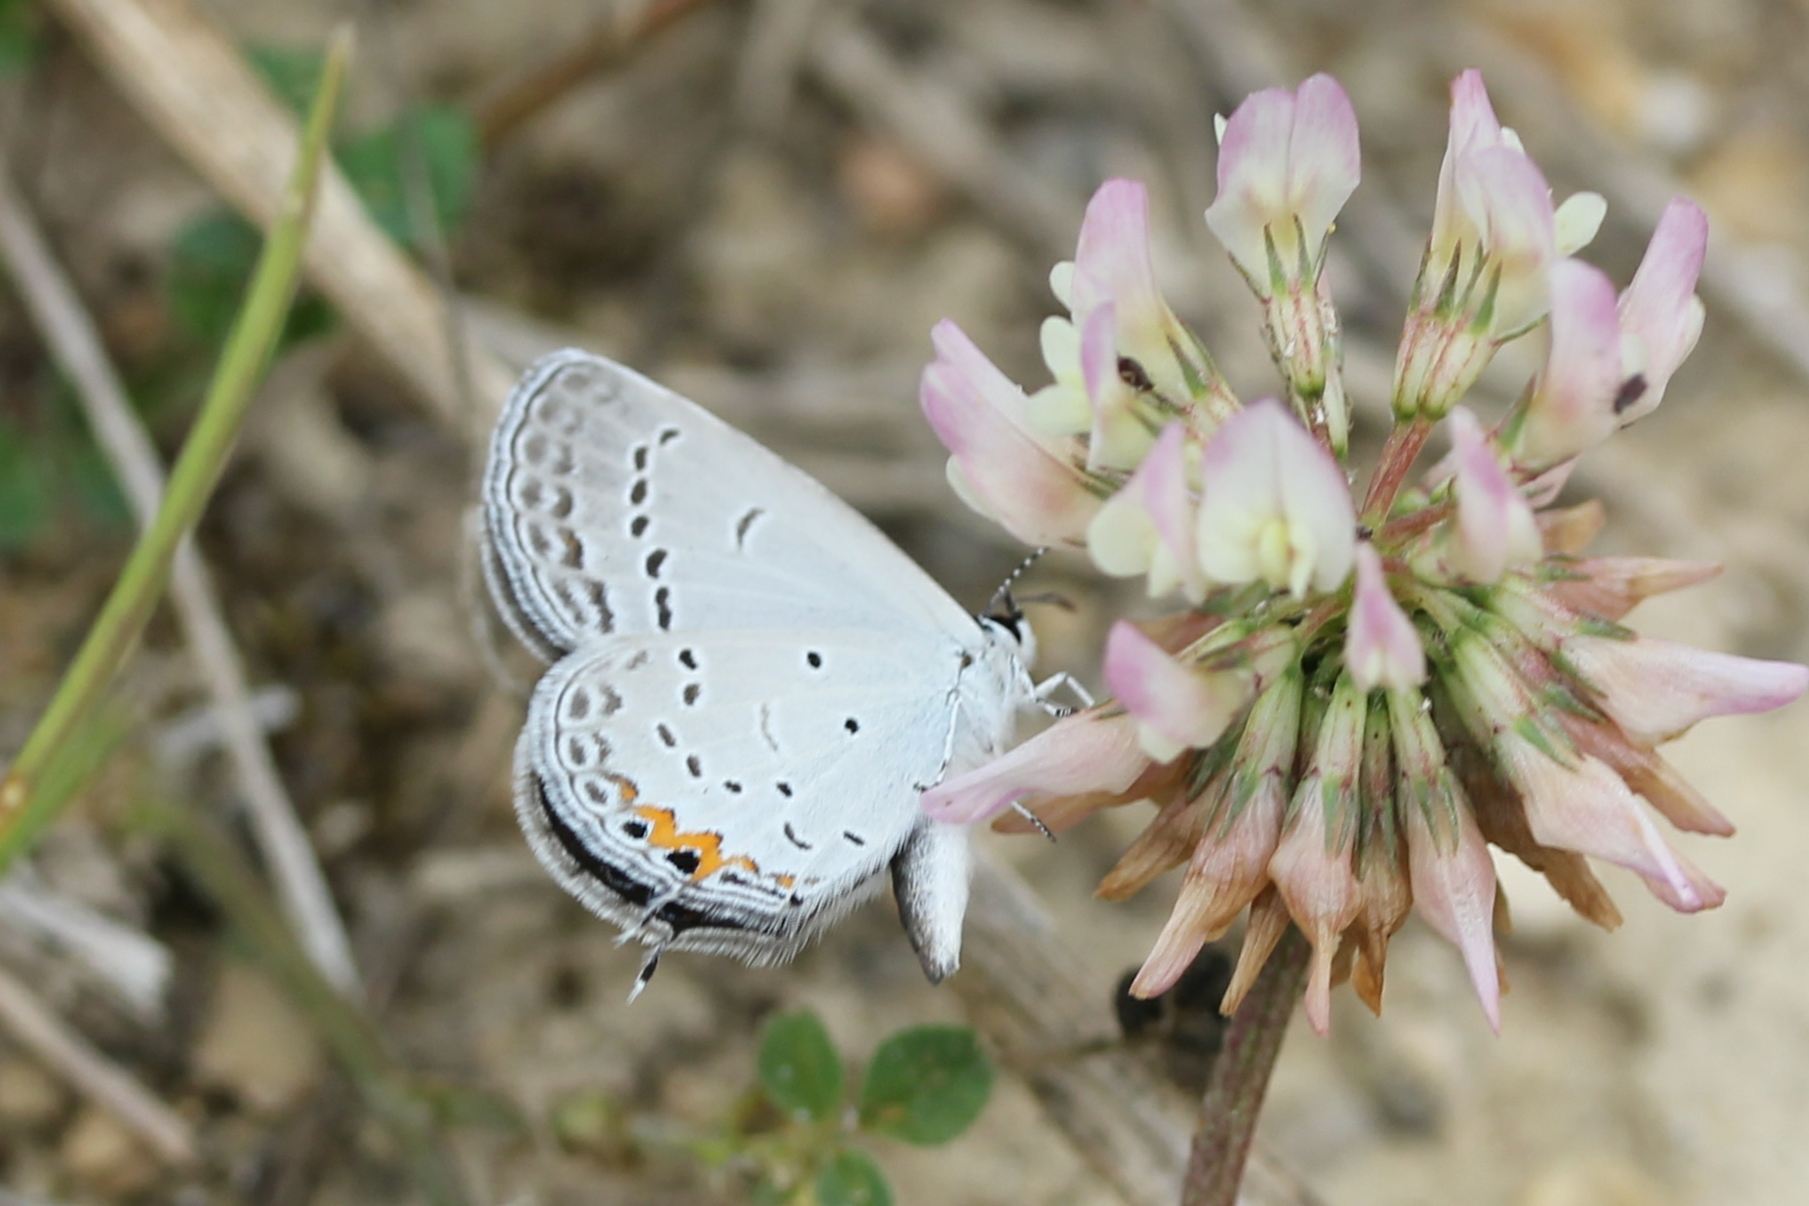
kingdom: Animalia
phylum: Arthropoda
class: Insecta
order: Lepidoptera
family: Lycaenidae
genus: Elkalyce
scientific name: Elkalyce comyntas
